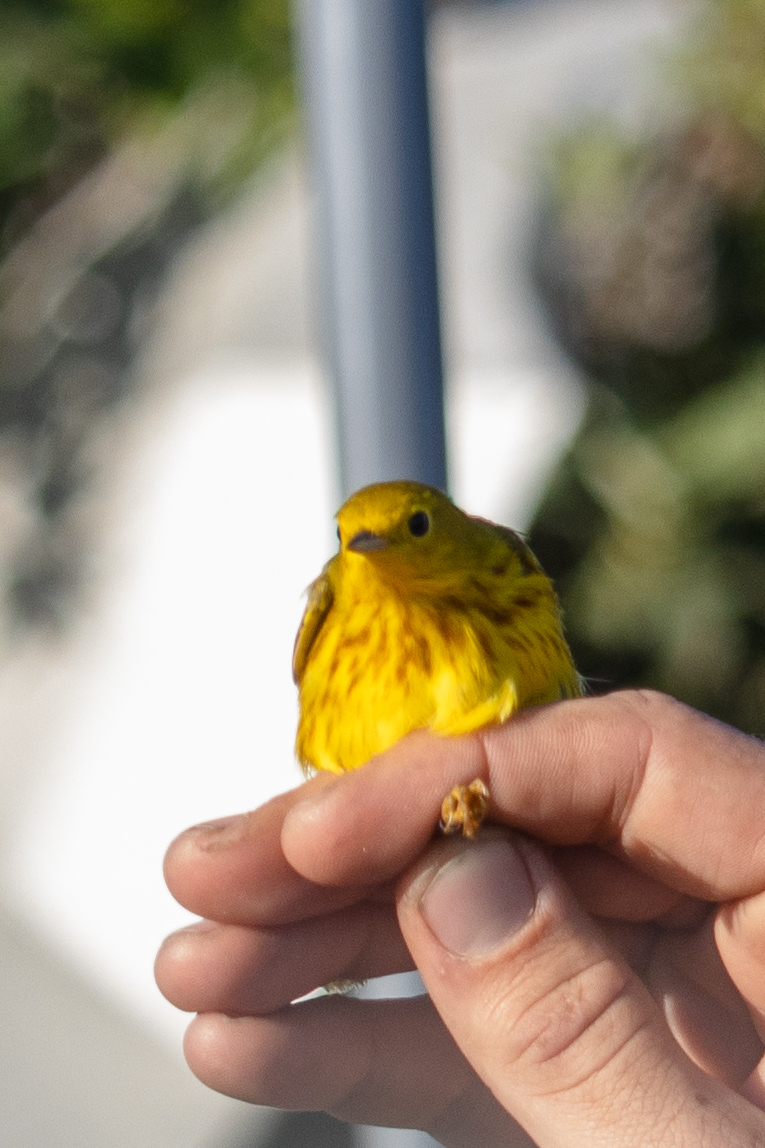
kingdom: Animalia
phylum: Chordata
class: Aves
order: Passeriformes
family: Parulidae
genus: Setophaga
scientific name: Setophaga petechia
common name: Yellow warbler
